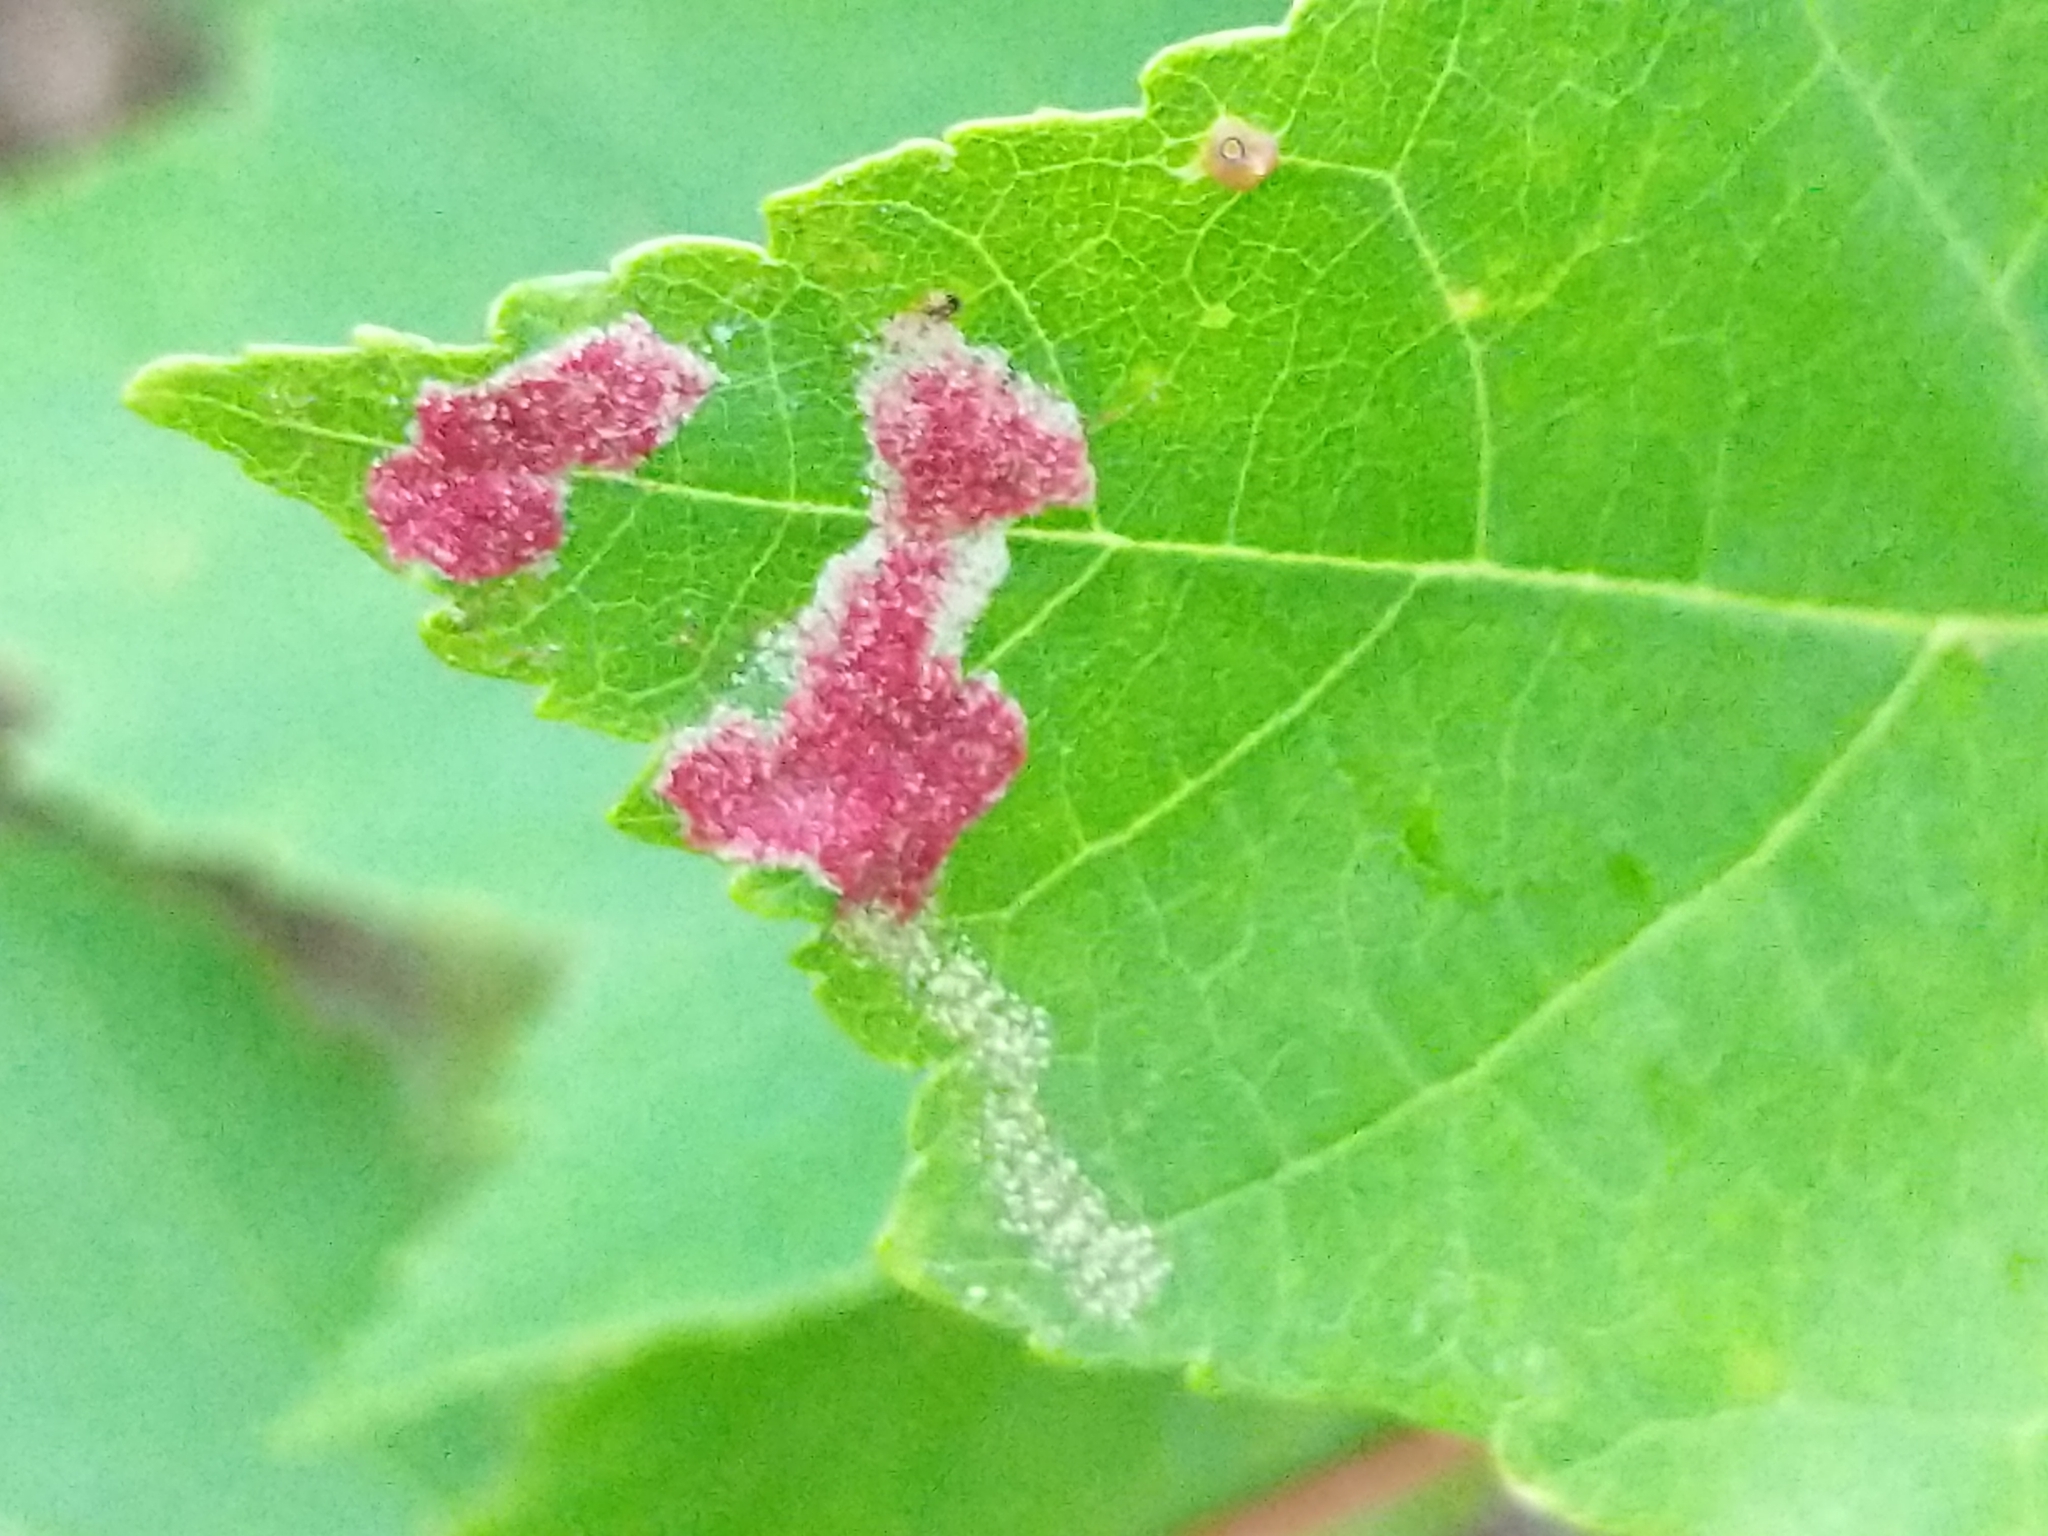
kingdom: Animalia
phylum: Arthropoda
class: Arachnida
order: Trombidiformes
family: Eriophyidae
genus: Aculus
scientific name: Aculus
